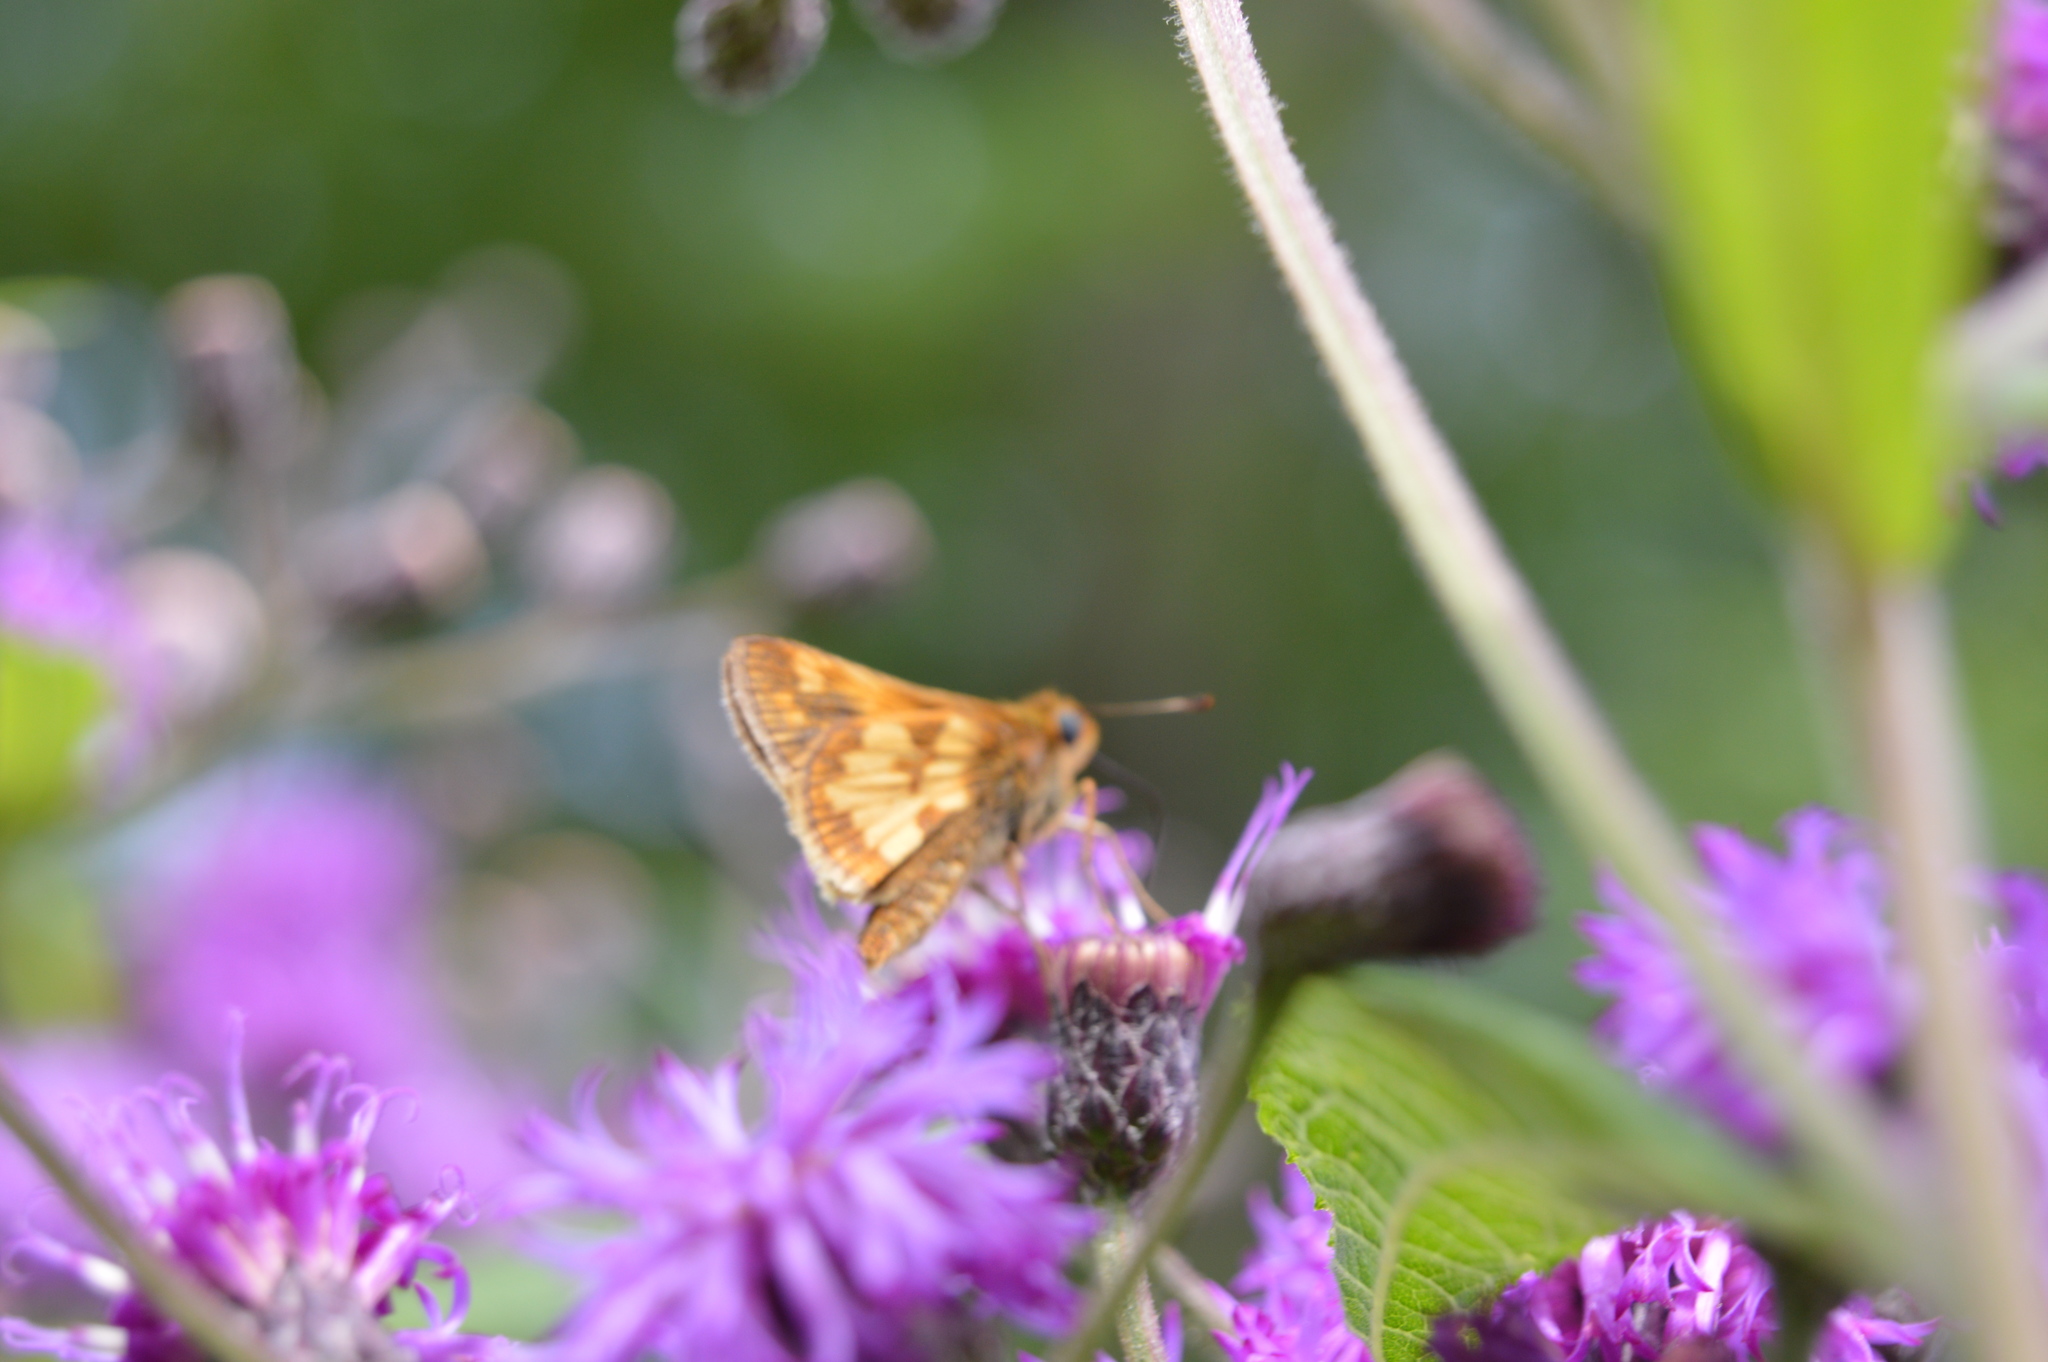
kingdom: Animalia
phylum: Arthropoda
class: Insecta
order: Lepidoptera
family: Hesperiidae
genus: Polites
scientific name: Polites coras
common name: Peck's skipper
